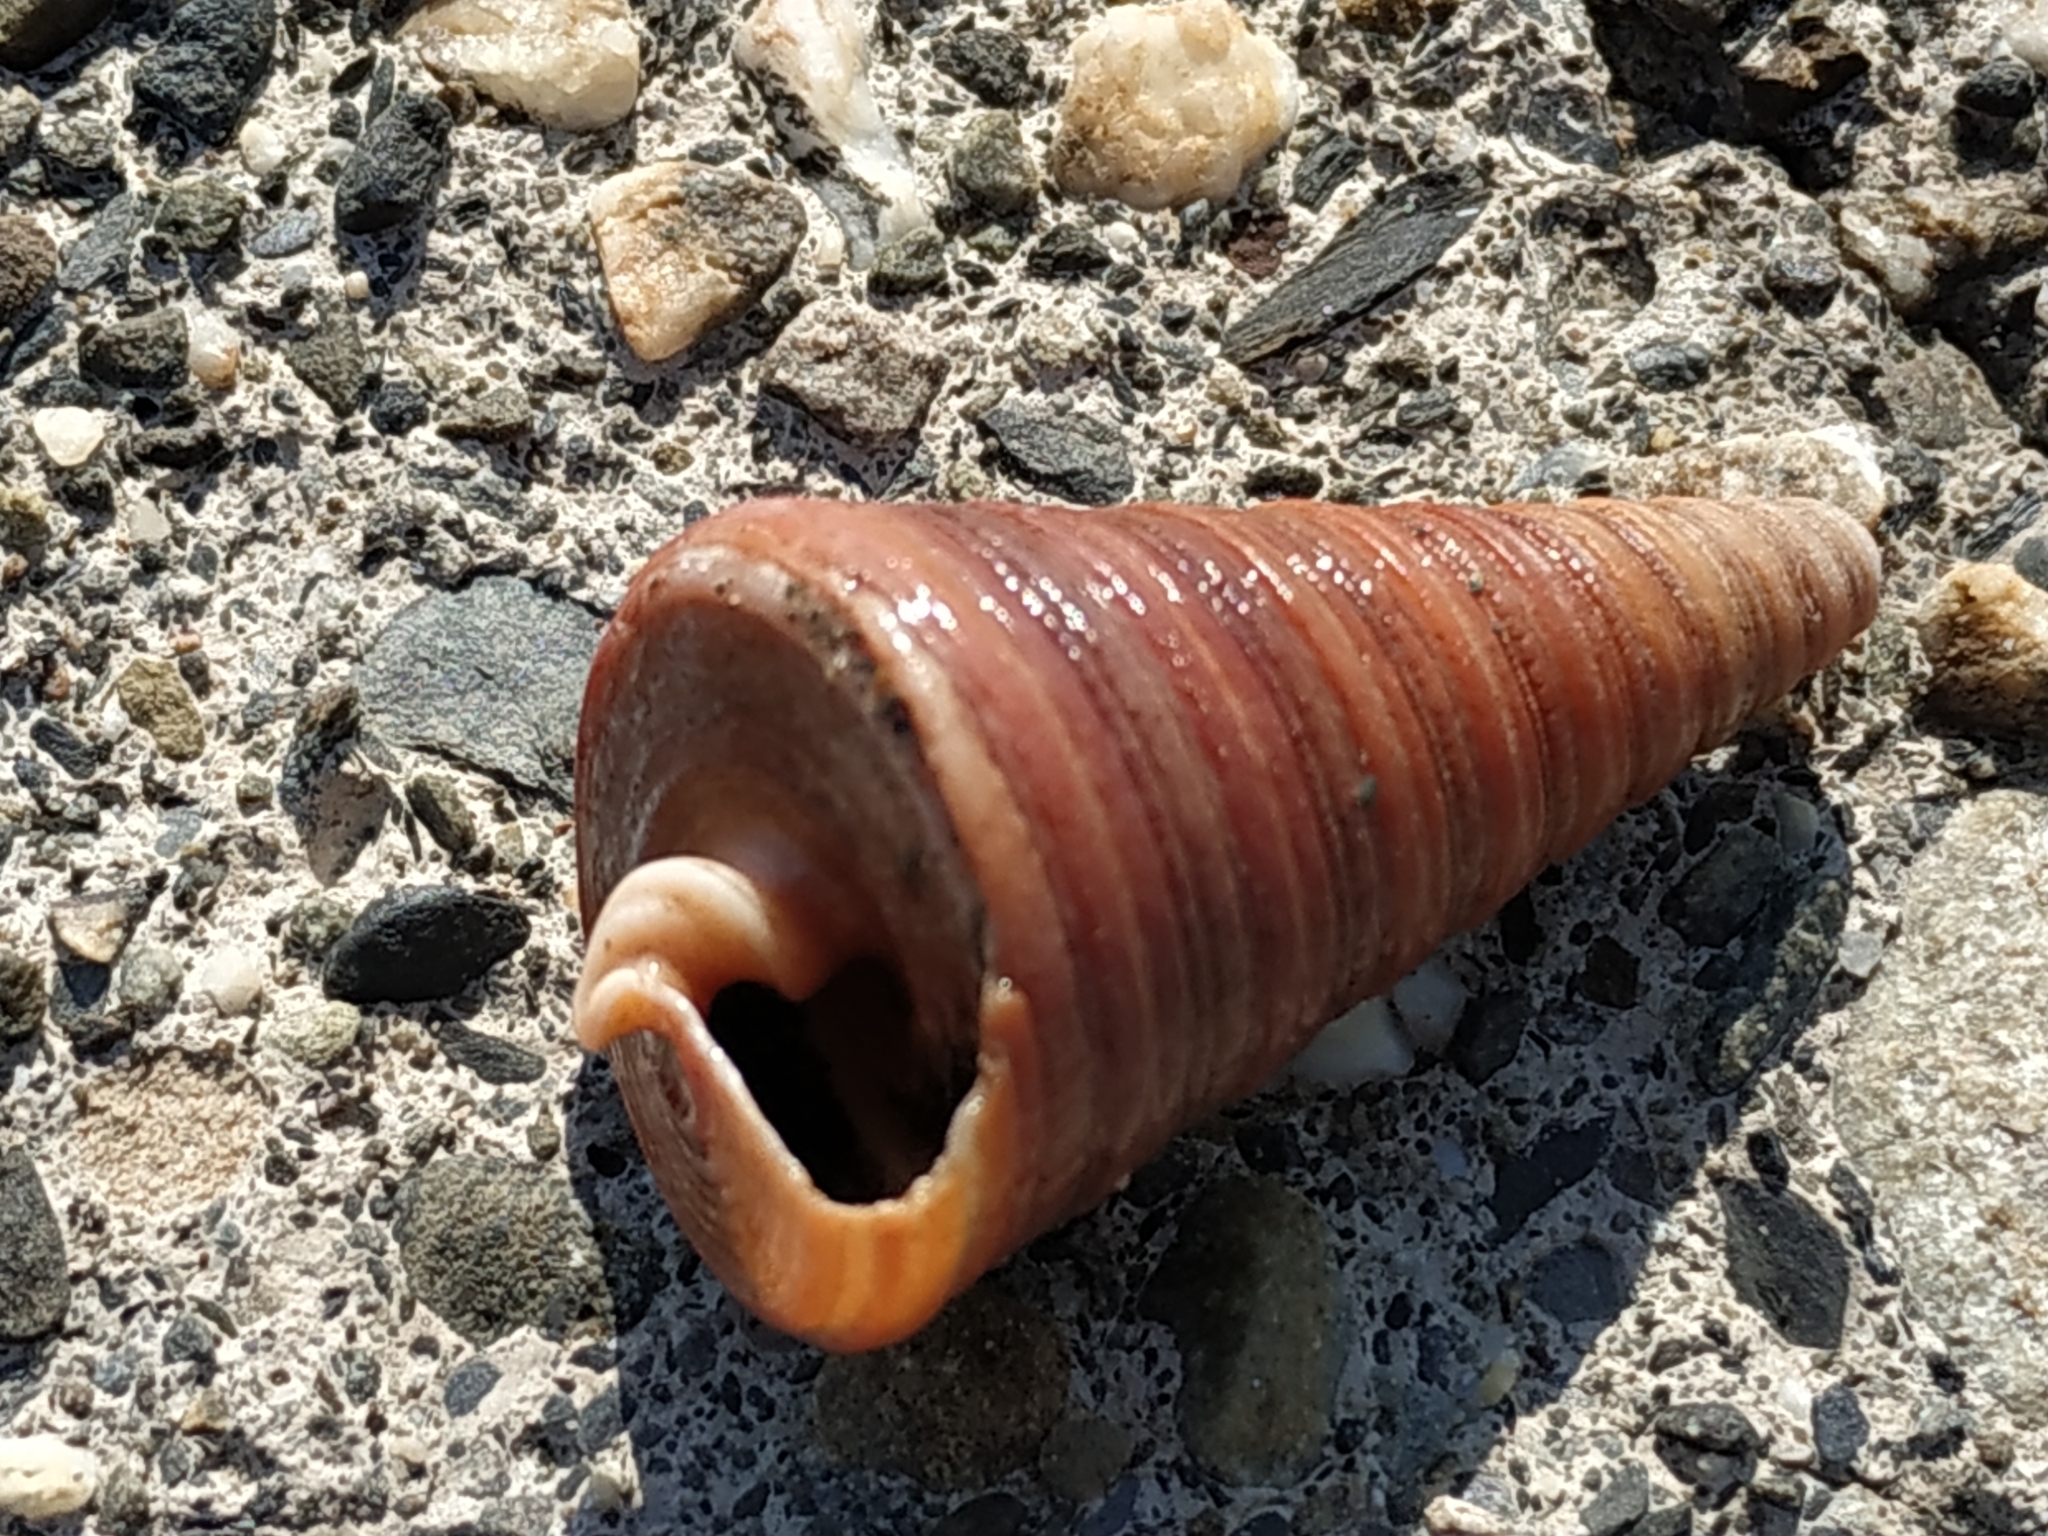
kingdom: Animalia
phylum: Mollusca
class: Gastropoda
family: Potamididae
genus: Telescopium
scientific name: Telescopium telescopium
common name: Telescope creeper
